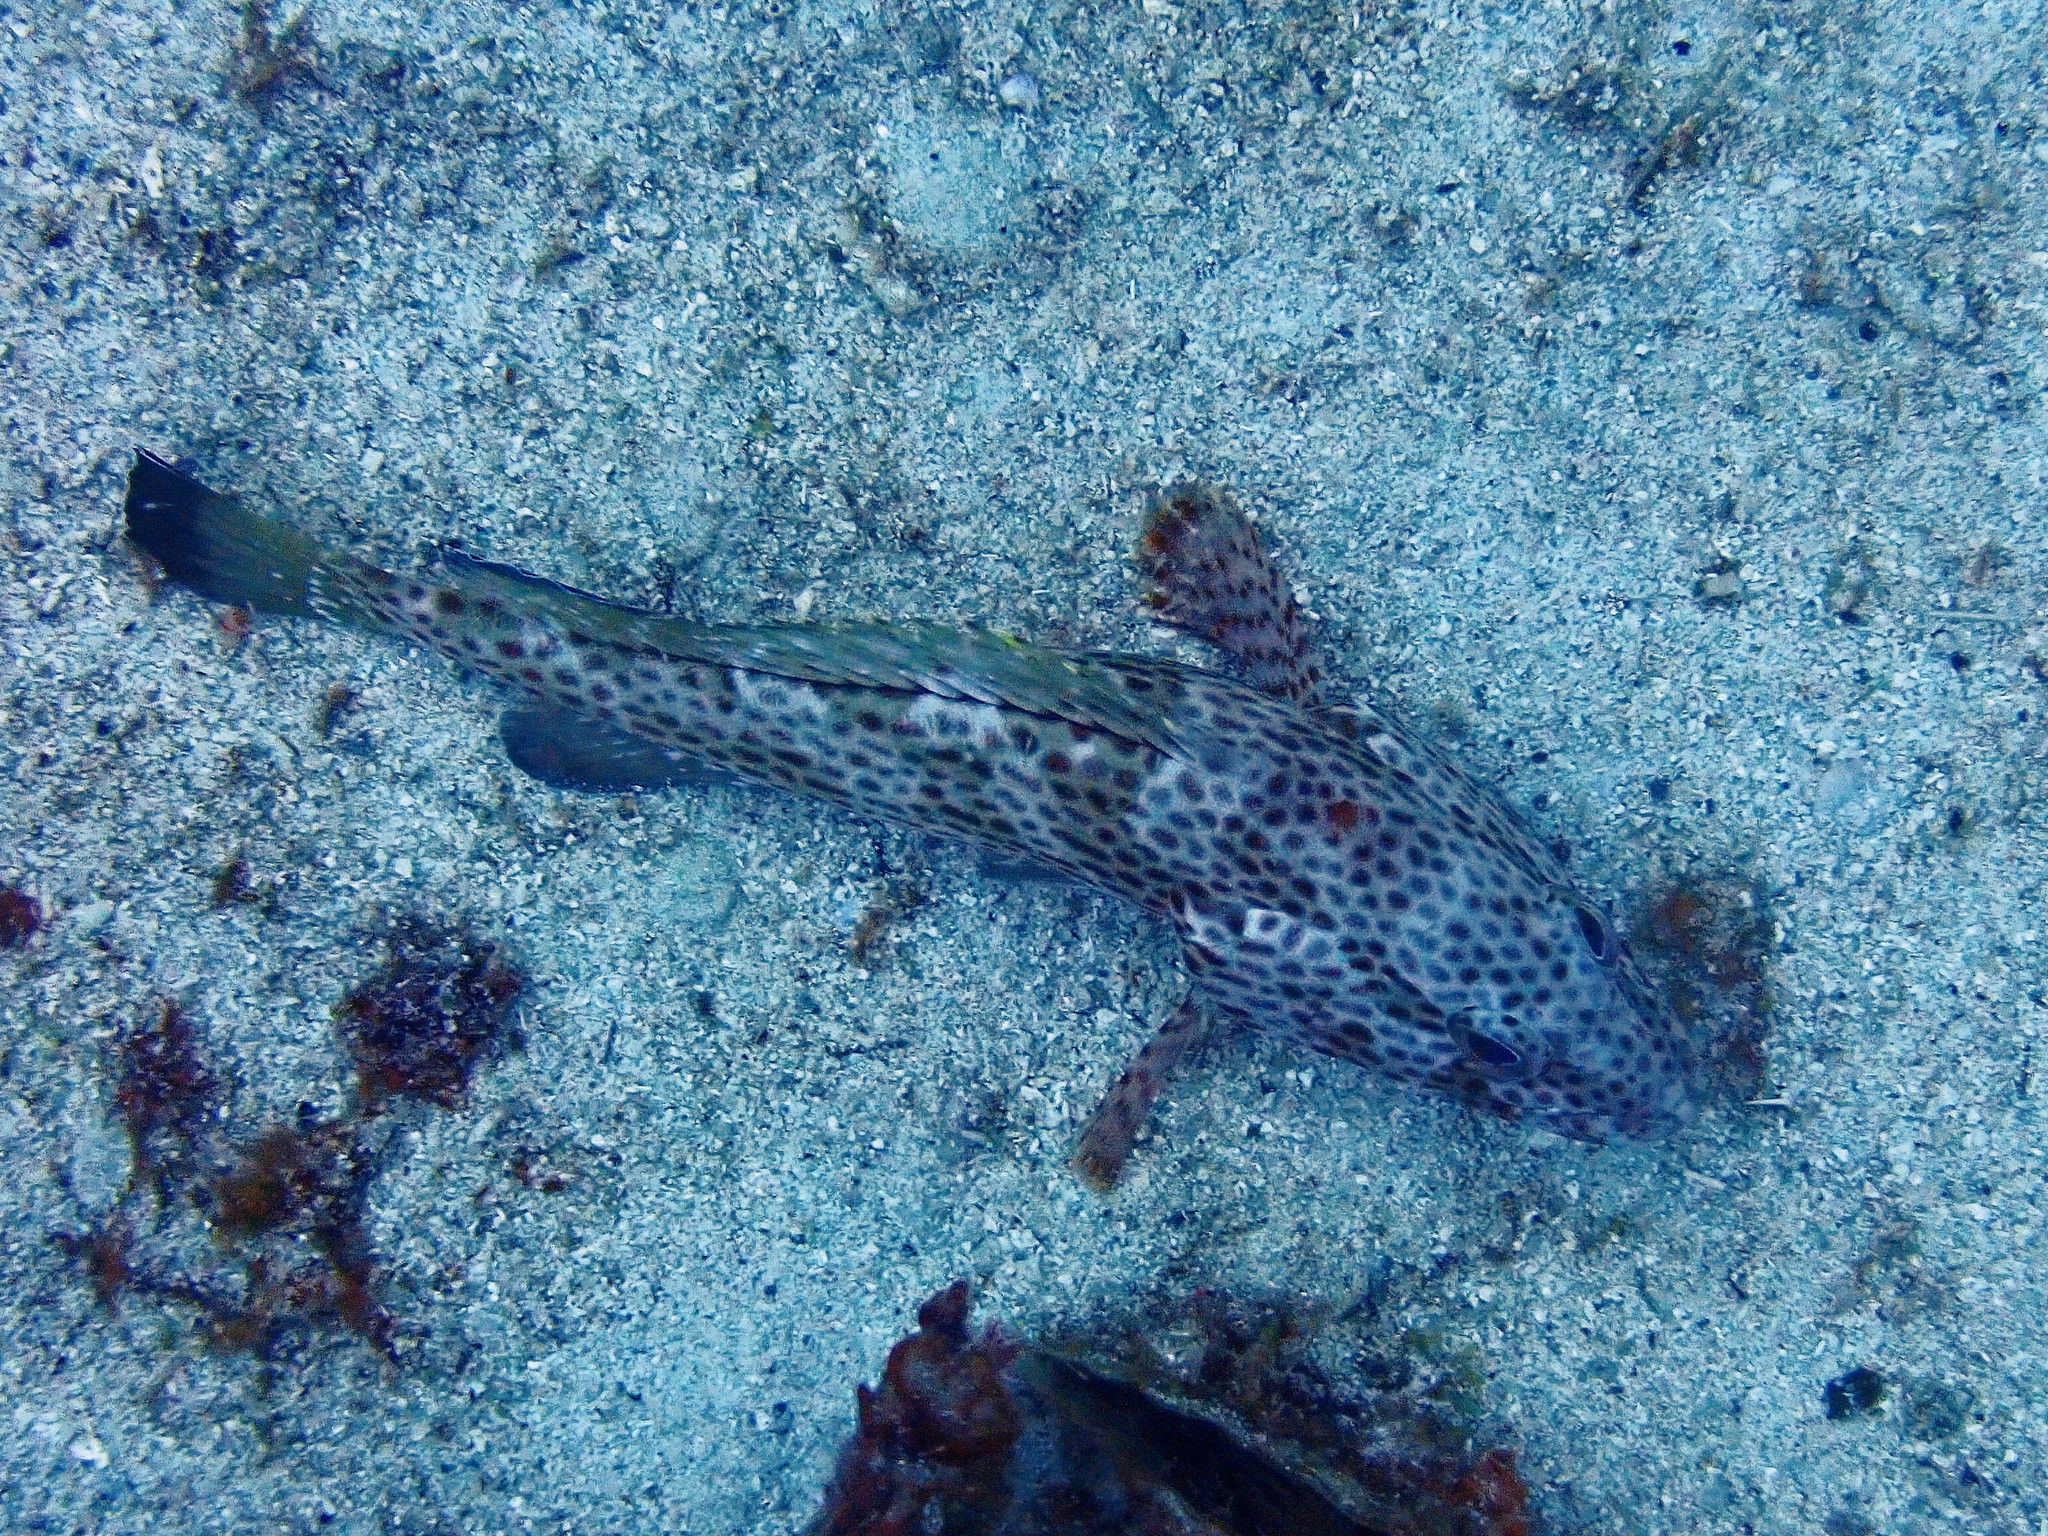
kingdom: Animalia
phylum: Chordata
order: Perciformes
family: Serranidae
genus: Epinephelus
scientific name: Epinephelus guttatus
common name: Red hind
